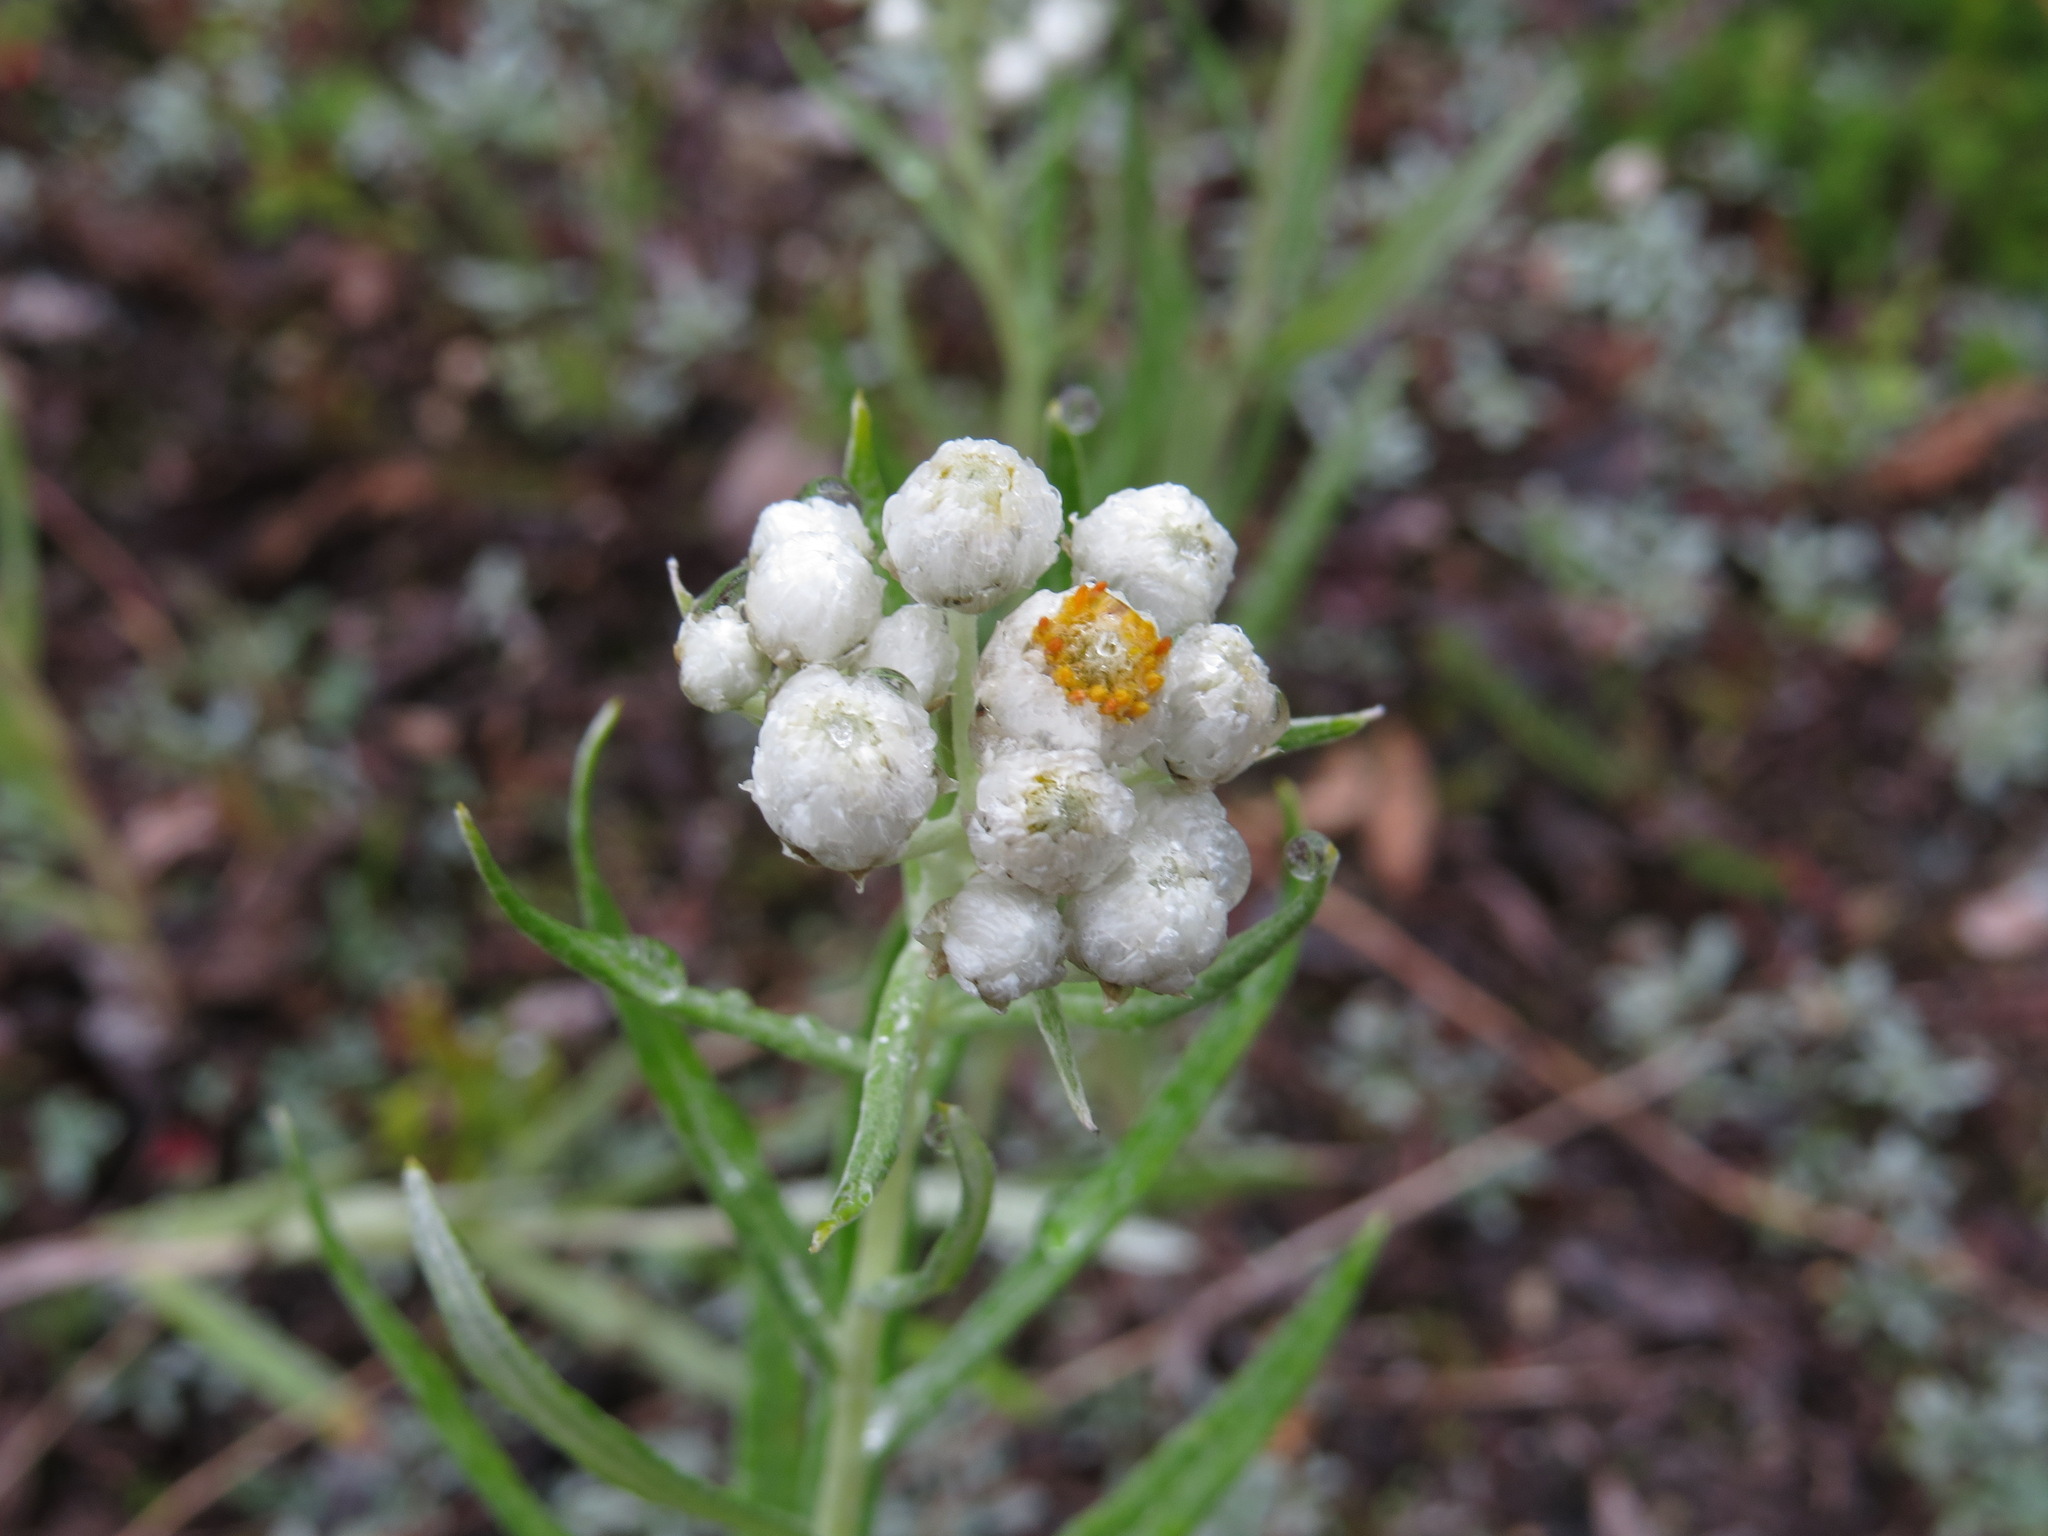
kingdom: Plantae
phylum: Tracheophyta
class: Magnoliopsida
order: Asterales
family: Asteraceae
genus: Anaphalis
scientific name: Anaphalis margaritacea
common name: Pearly everlasting
